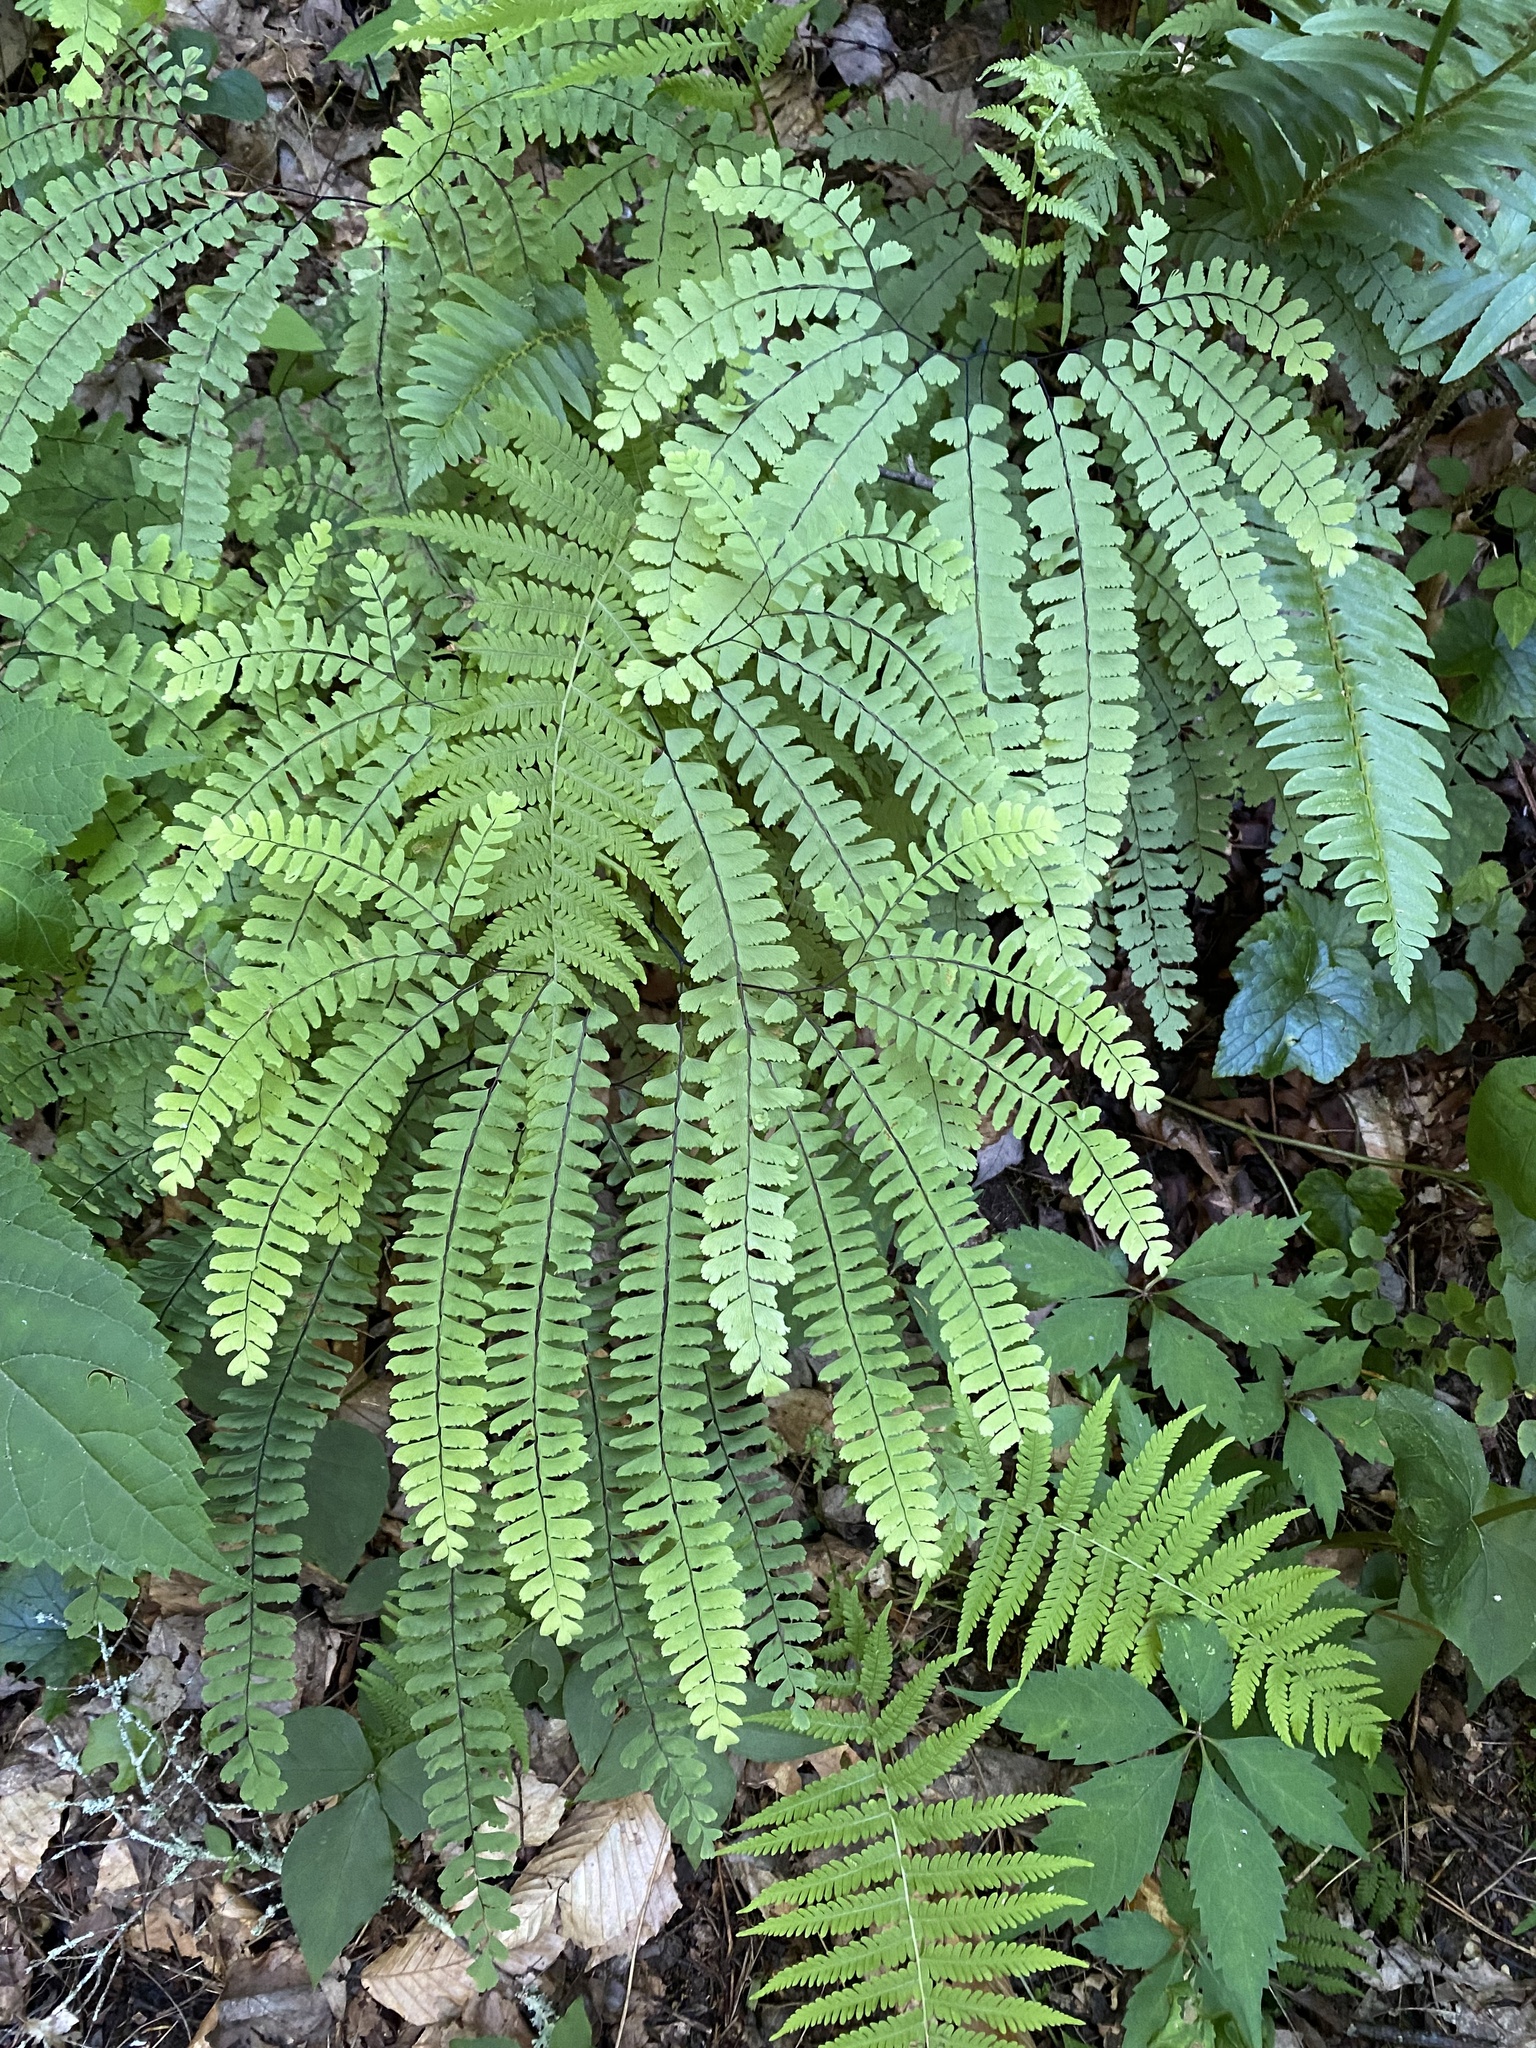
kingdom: Plantae
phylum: Tracheophyta
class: Polypodiopsida
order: Polypodiales
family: Pteridaceae
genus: Adiantum
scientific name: Adiantum pedatum
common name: Five-finger fern
